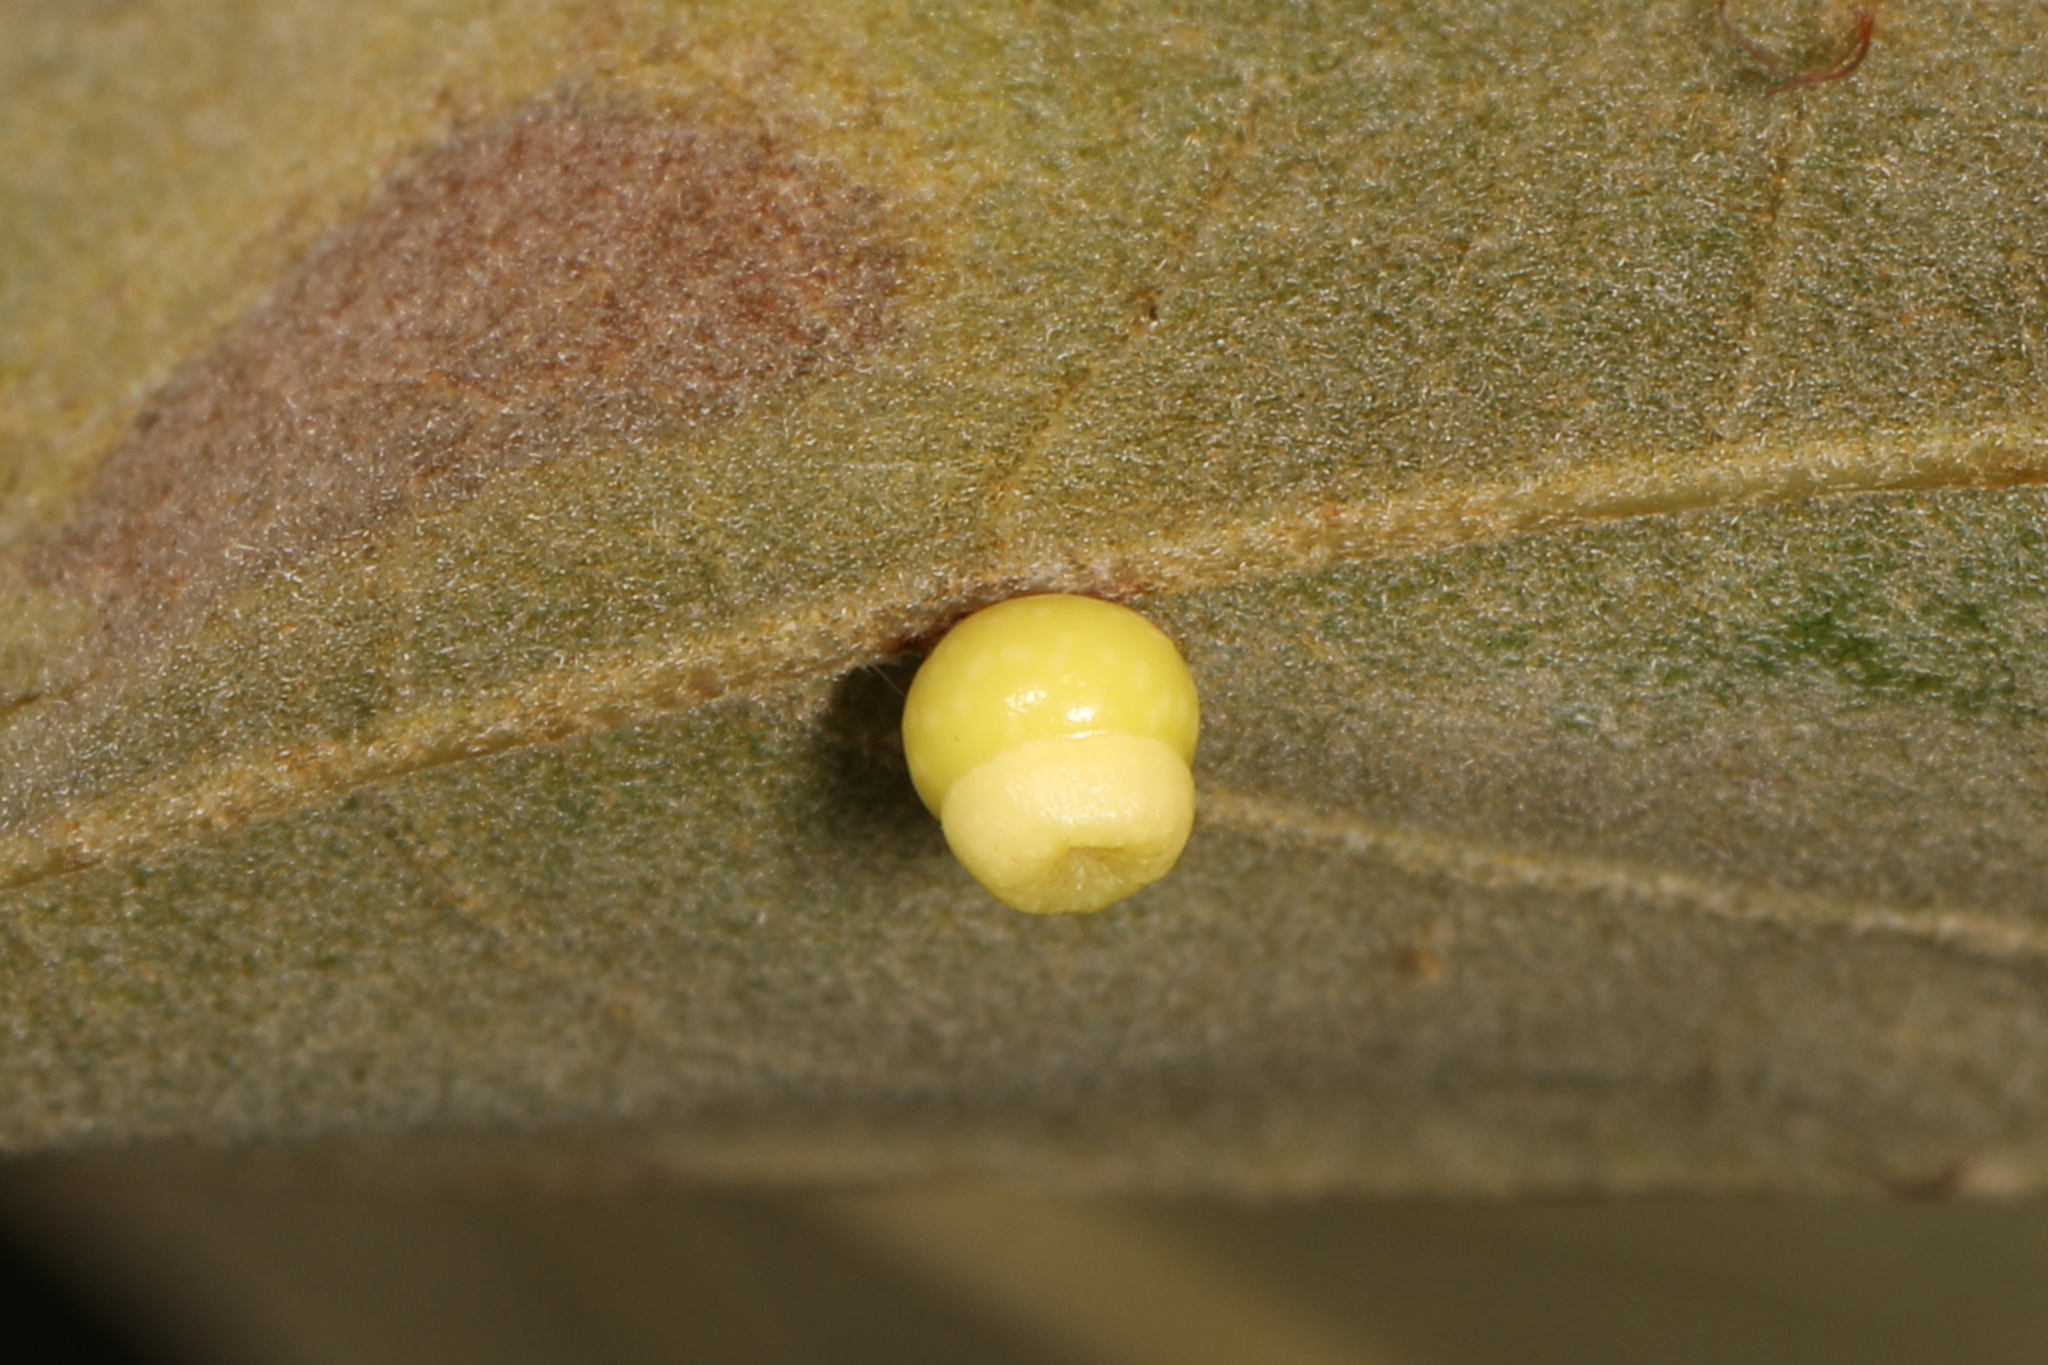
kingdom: Animalia
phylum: Arthropoda
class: Insecta
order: Hymenoptera
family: Cynipidae
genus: Kokkocynips
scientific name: Kokkocynips rileyi
